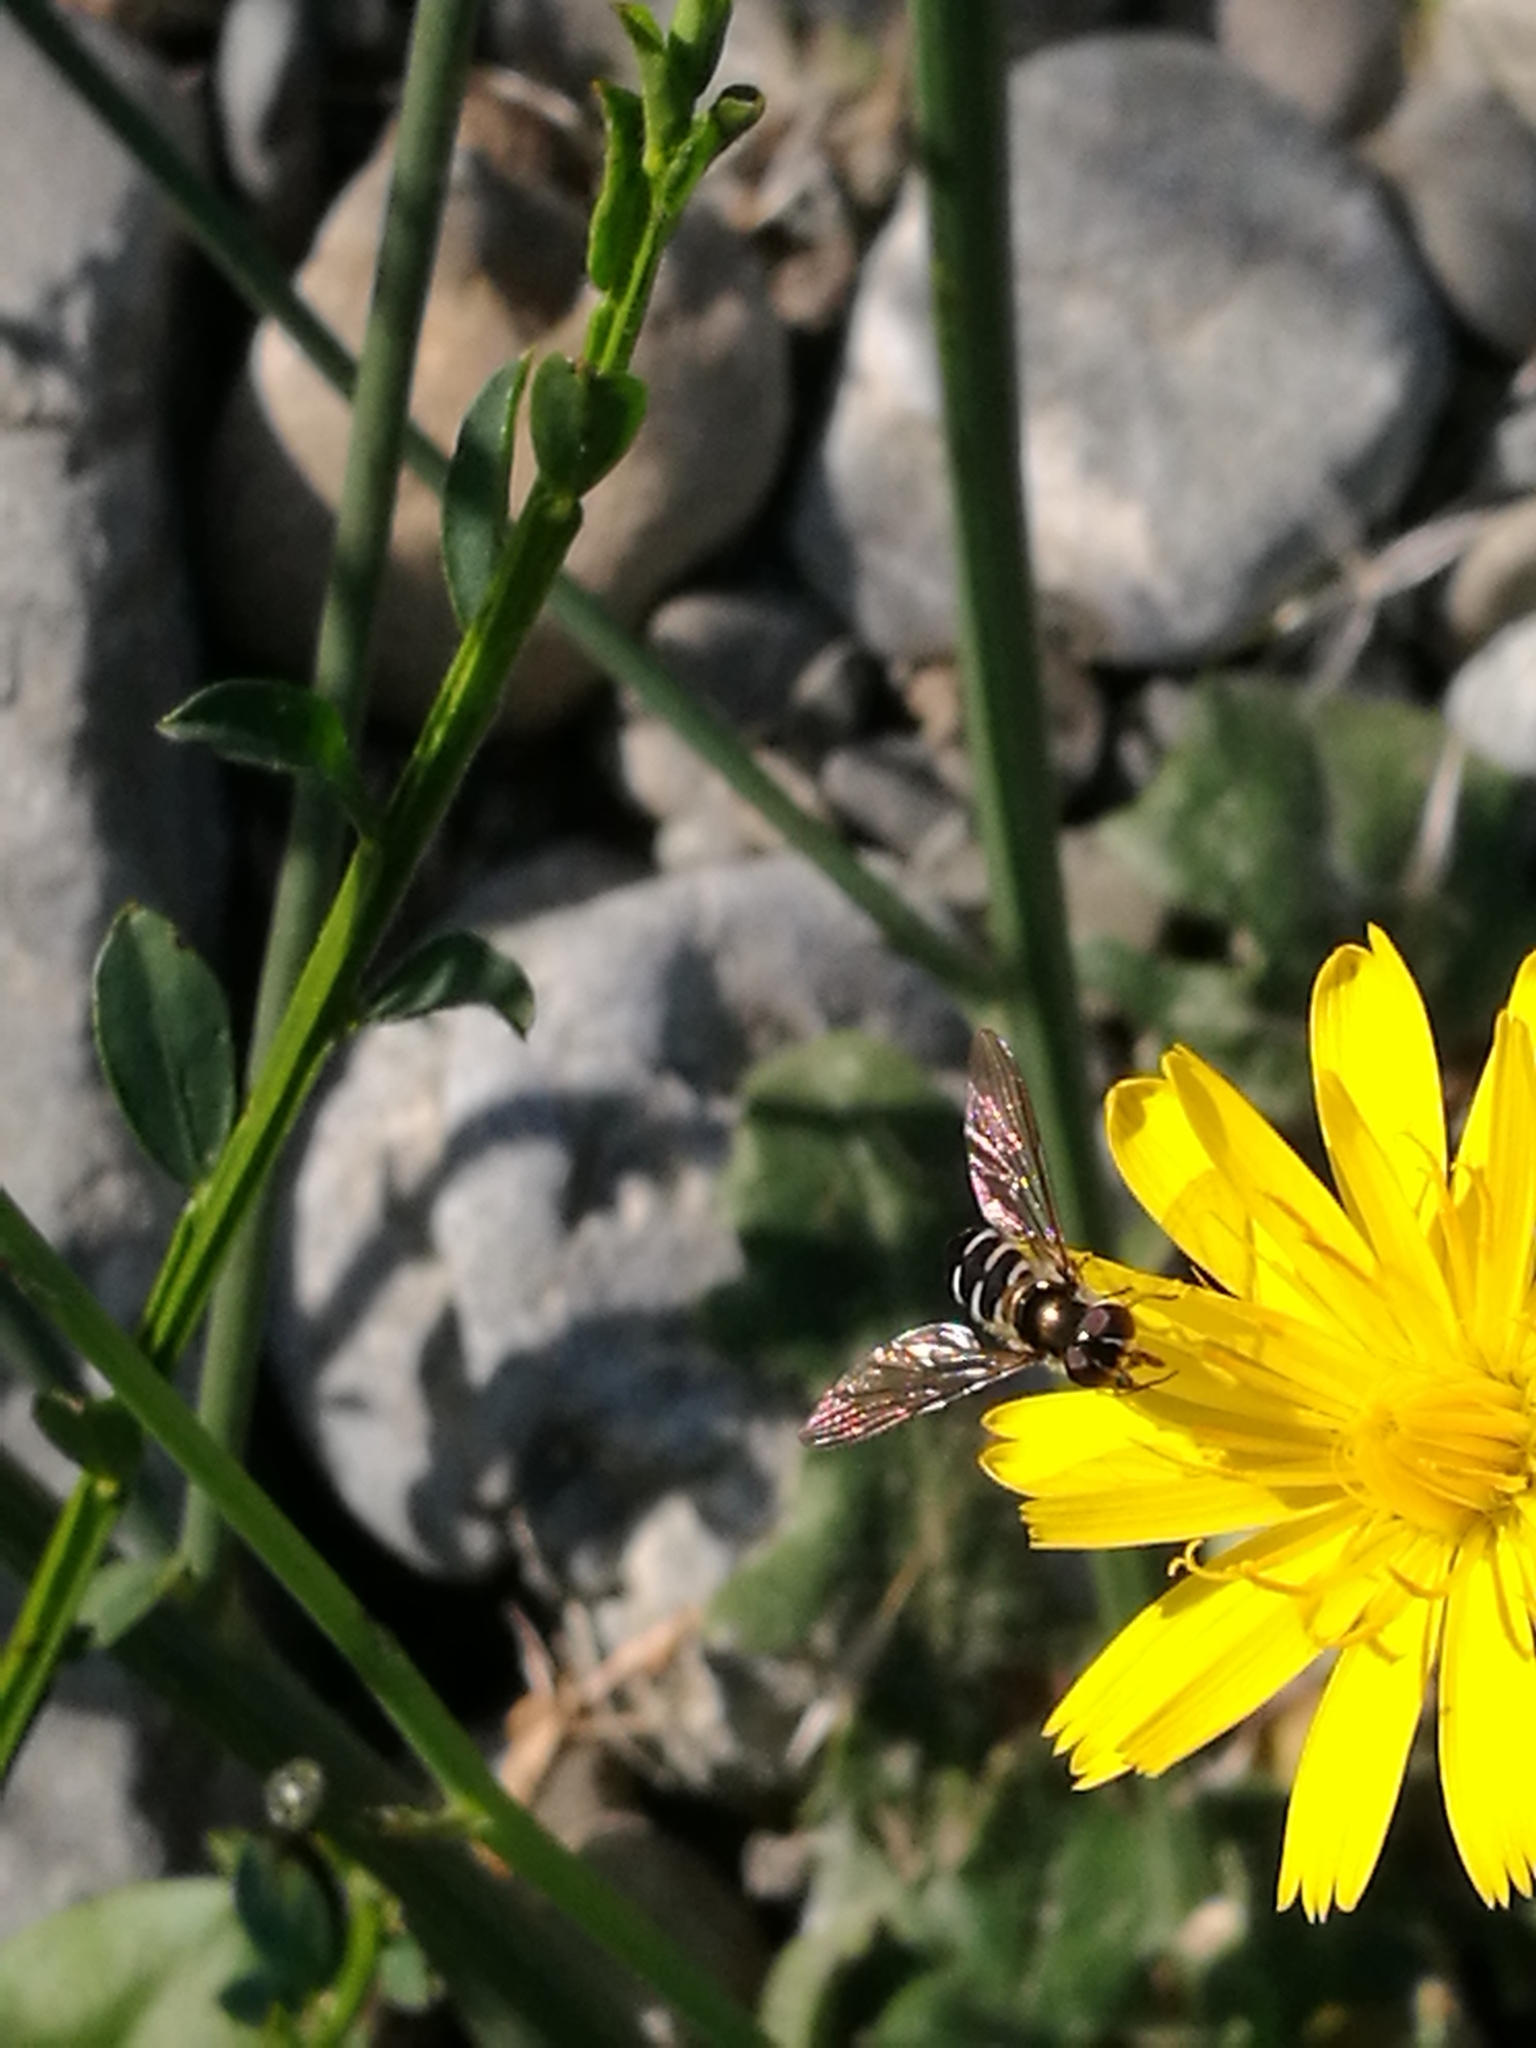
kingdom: Animalia
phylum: Arthropoda
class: Insecta
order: Diptera
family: Syrphidae
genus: Melangyna
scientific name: Melangyna novaezelandiae
